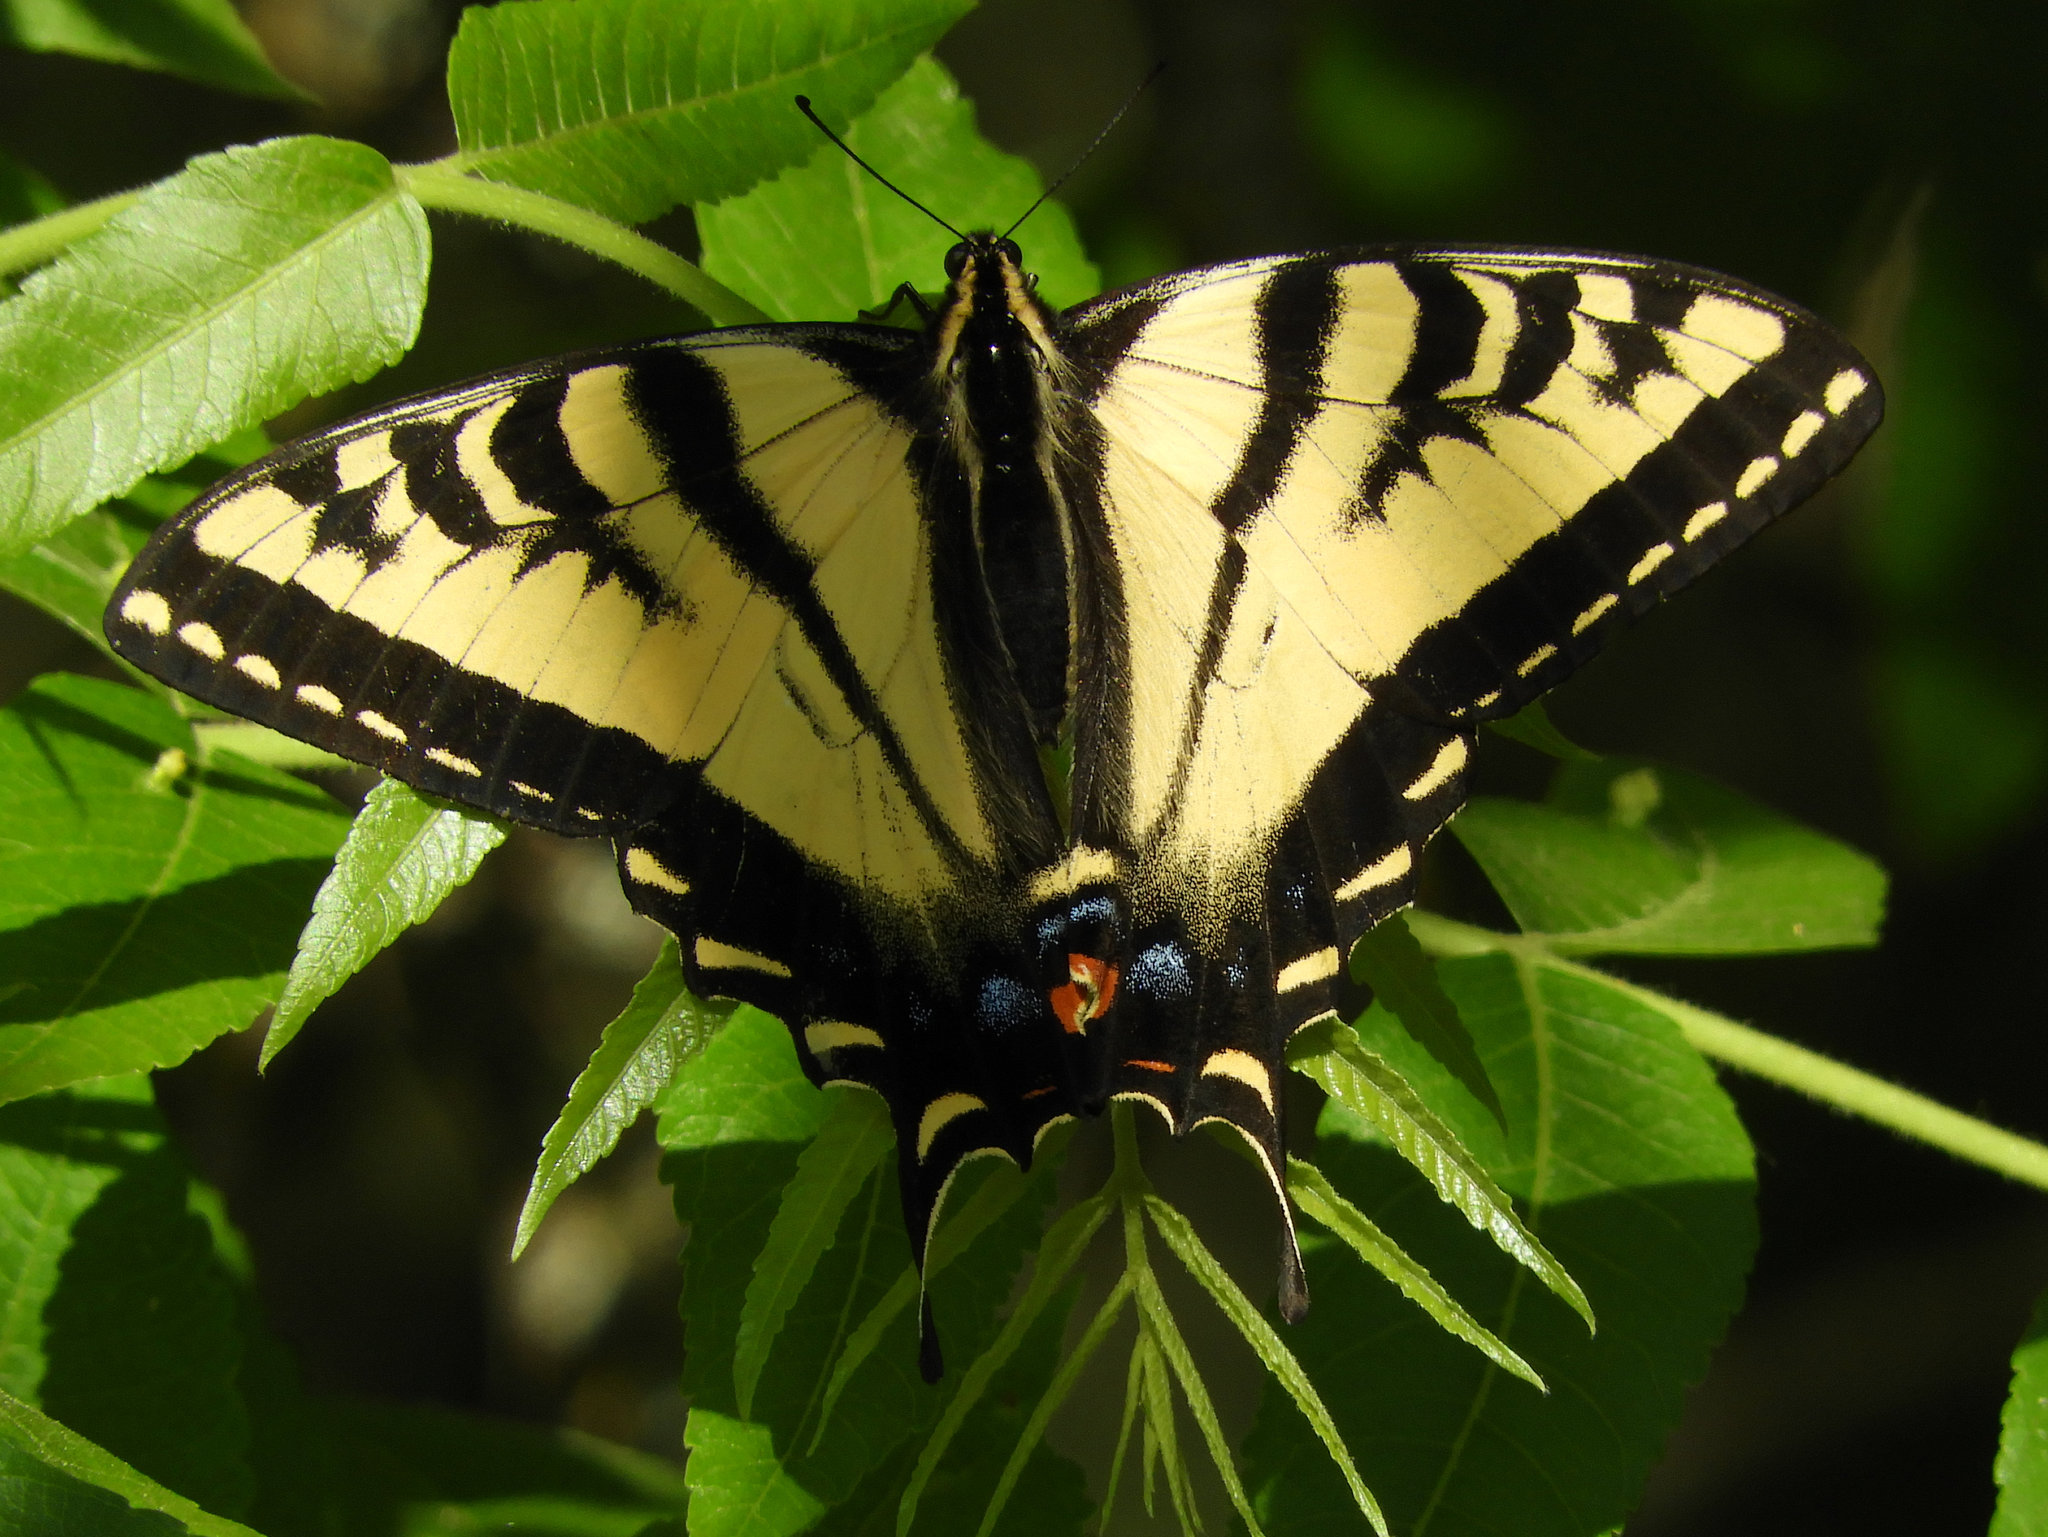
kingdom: Animalia
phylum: Arthropoda
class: Insecta
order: Lepidoptera
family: Papilionidae
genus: Papilio
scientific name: Papilio rutulus
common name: Western tiger swallowtail
